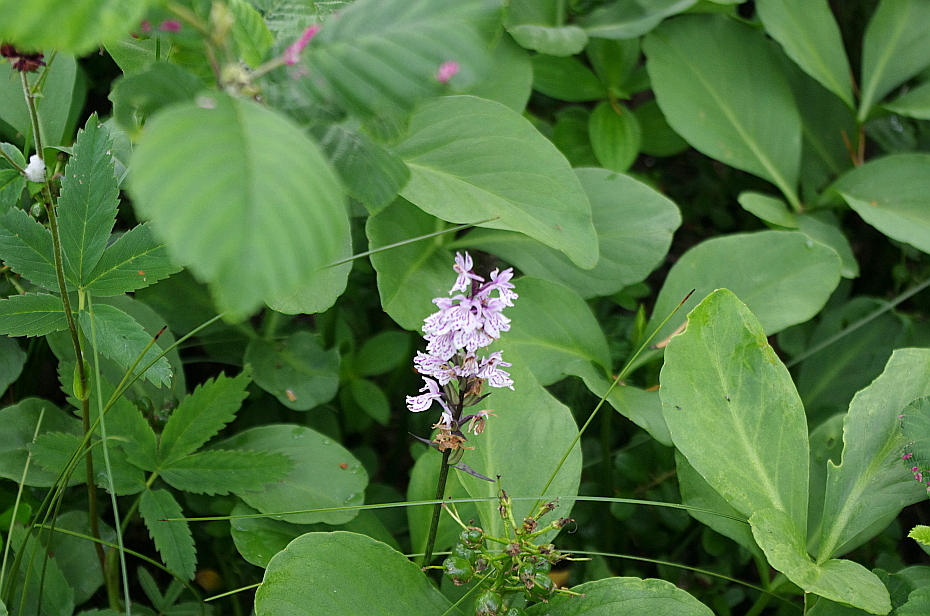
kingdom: Plantae
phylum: Tracheophyta
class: Liliopsida
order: Asparagales
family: Orchidaceae
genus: Dactylorhiza
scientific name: Dactylorhiza maculata
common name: Heath spotted-orchid
